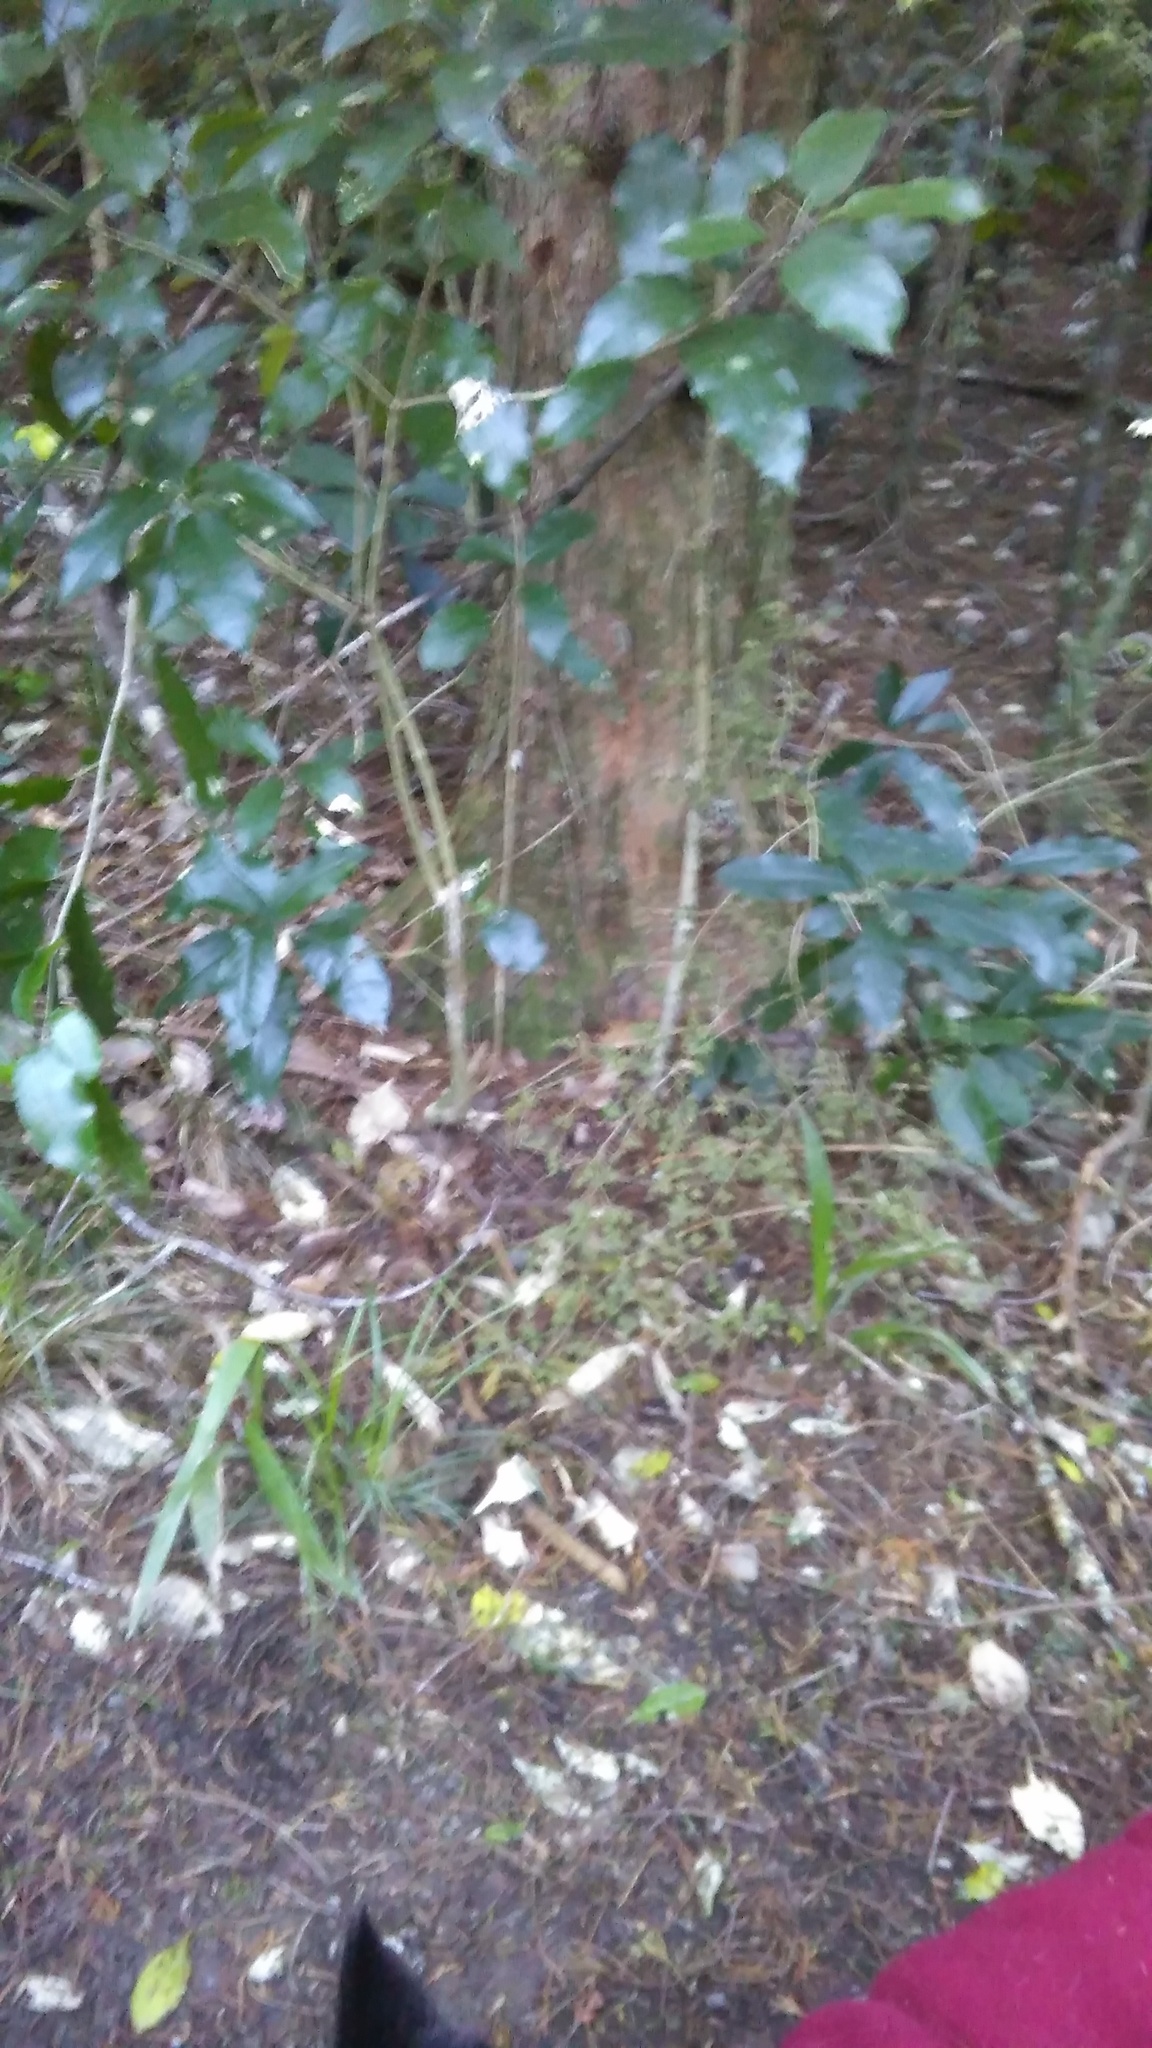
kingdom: Plantae
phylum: Tracheophyta
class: Liliopsida
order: Arecales
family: Arecaceae
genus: Phoenix
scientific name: Phoenix canariensis
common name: Canary island date palm
